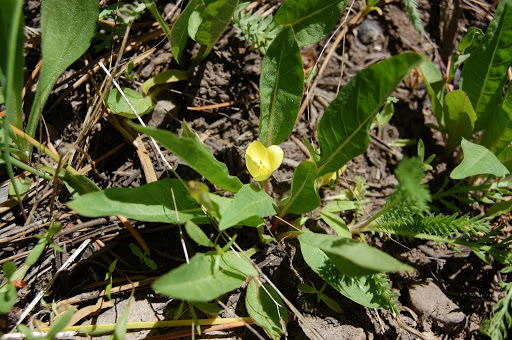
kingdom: Plantae
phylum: Tracheophyta
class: Magnoliopsida
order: Myrtales
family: Onagraceae
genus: Taraxia
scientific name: Taraxia subacaulis
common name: Diffuseflower evening primrose
